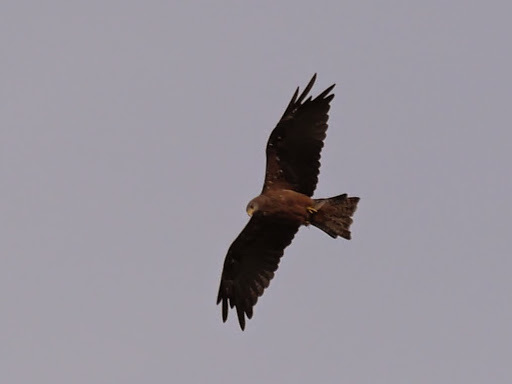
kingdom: Animalia
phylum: Chordata
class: Aves
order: Accipitriformes
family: Accipitridae
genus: Milvus
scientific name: Milvus migrans
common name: Black kite
